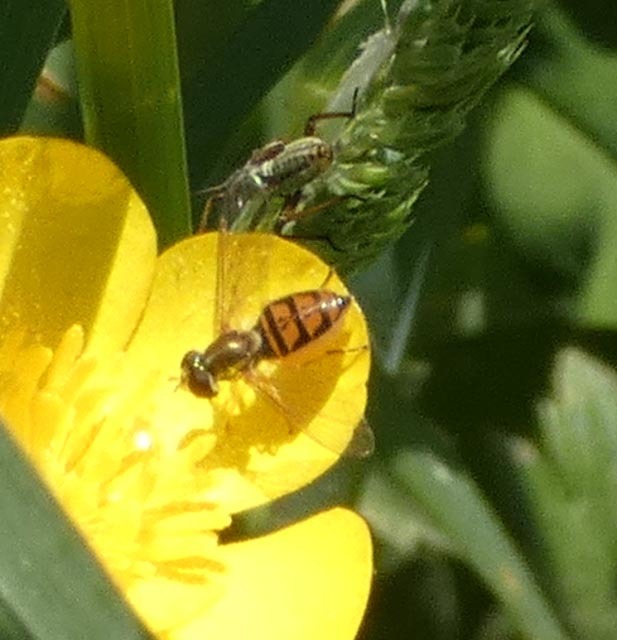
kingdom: Animalia
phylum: Arthropoda
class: Insecta
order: Diptera
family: Syrphidae
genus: Toxomerus
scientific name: Toxomerus marginatus
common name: Syrphid fly
